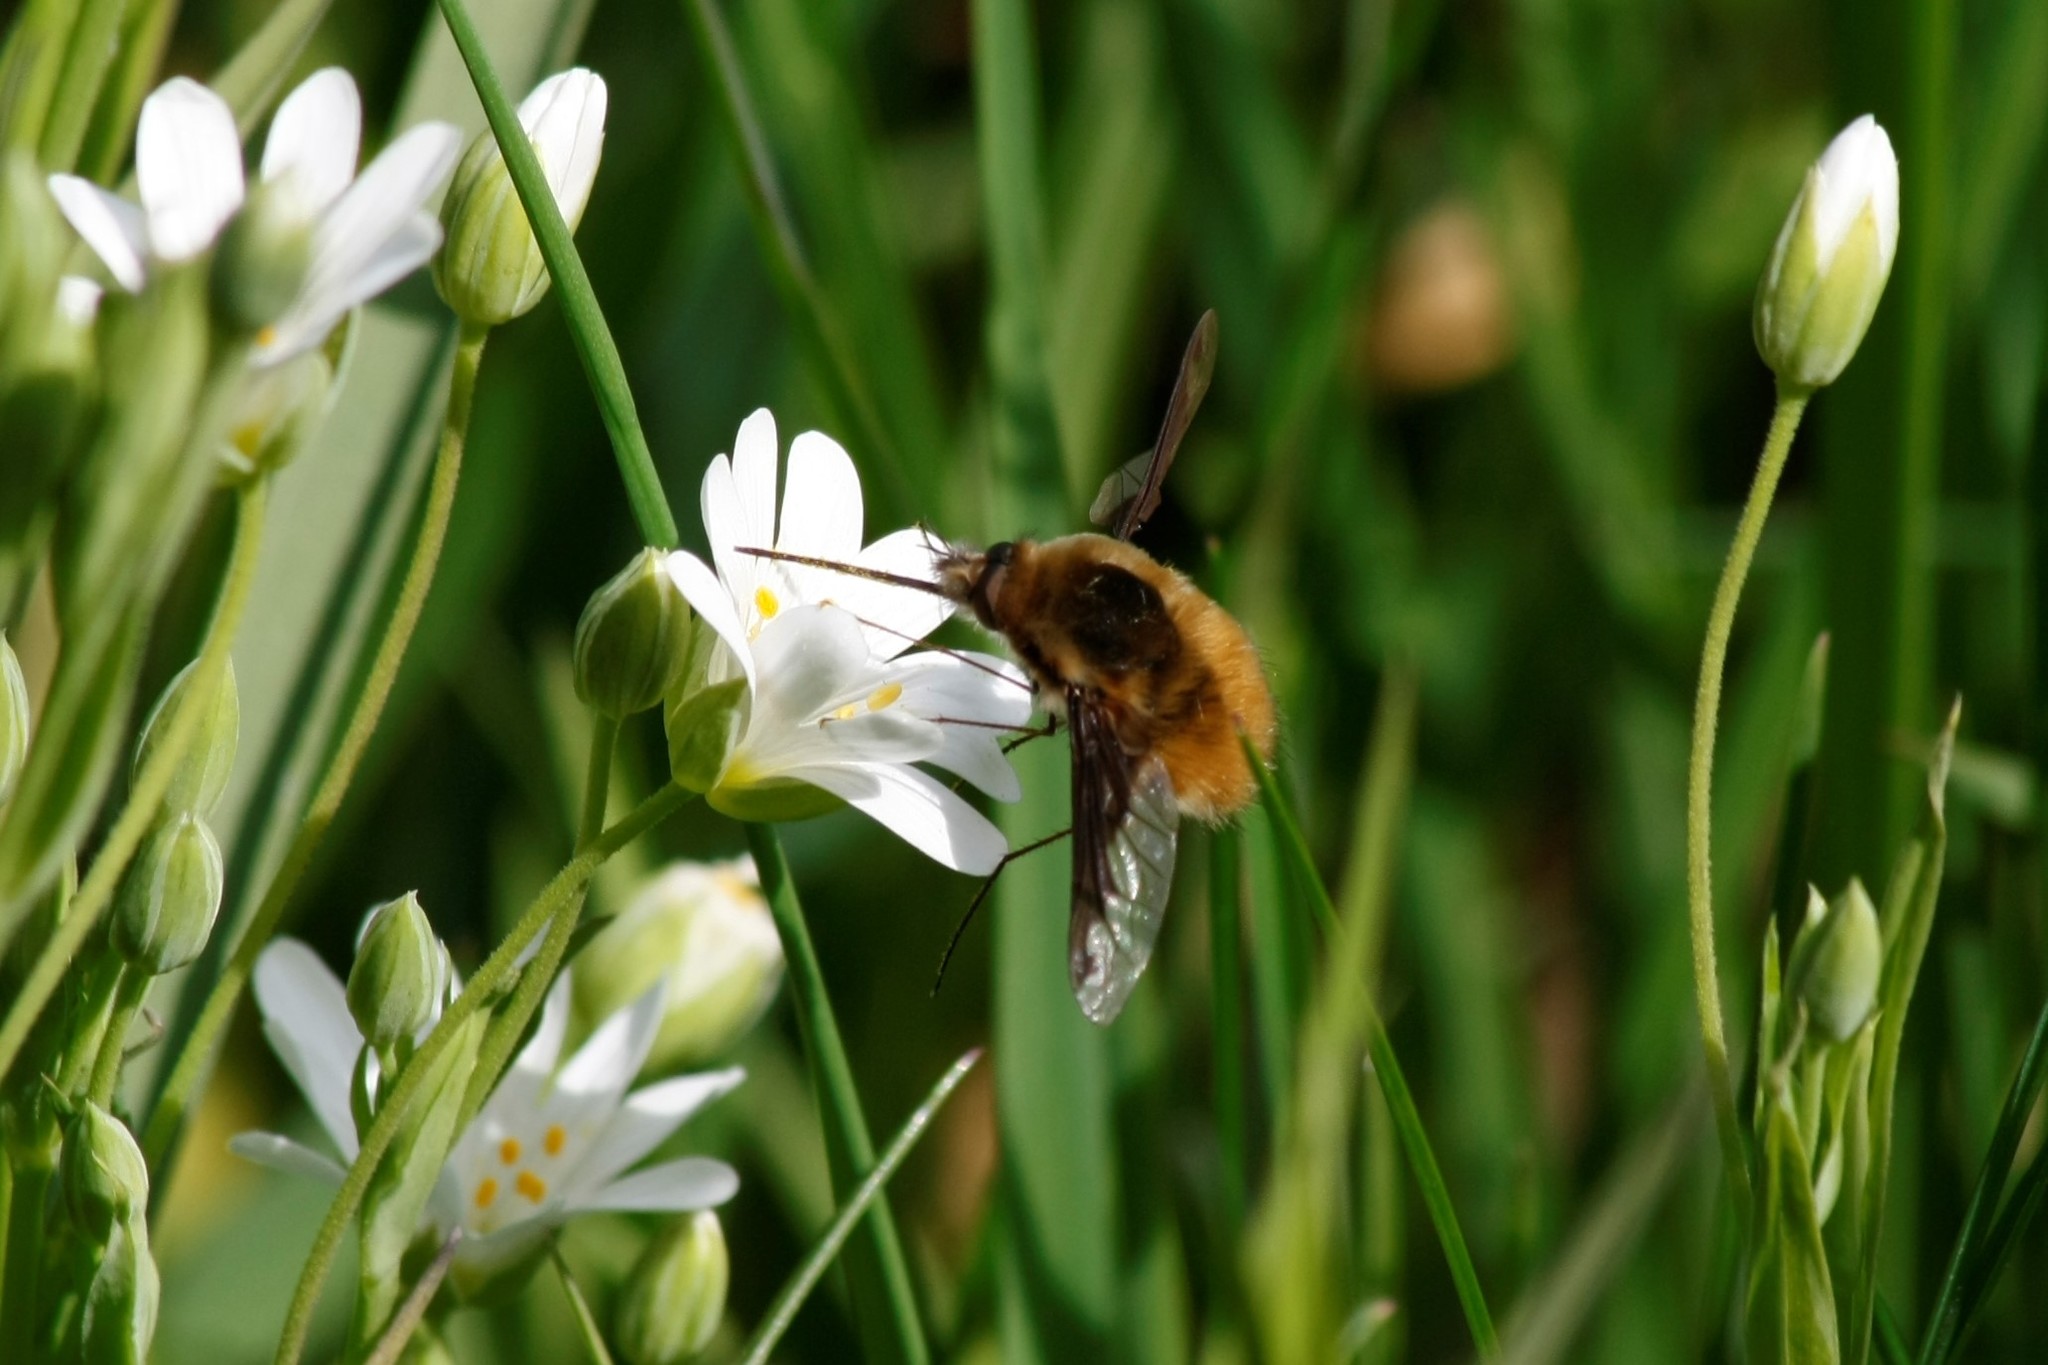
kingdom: Animalia
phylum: Arthropoda
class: Insecta
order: Diptera
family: Bombyliidae
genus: Bombylius
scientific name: Bombylius major
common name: Bee fly
